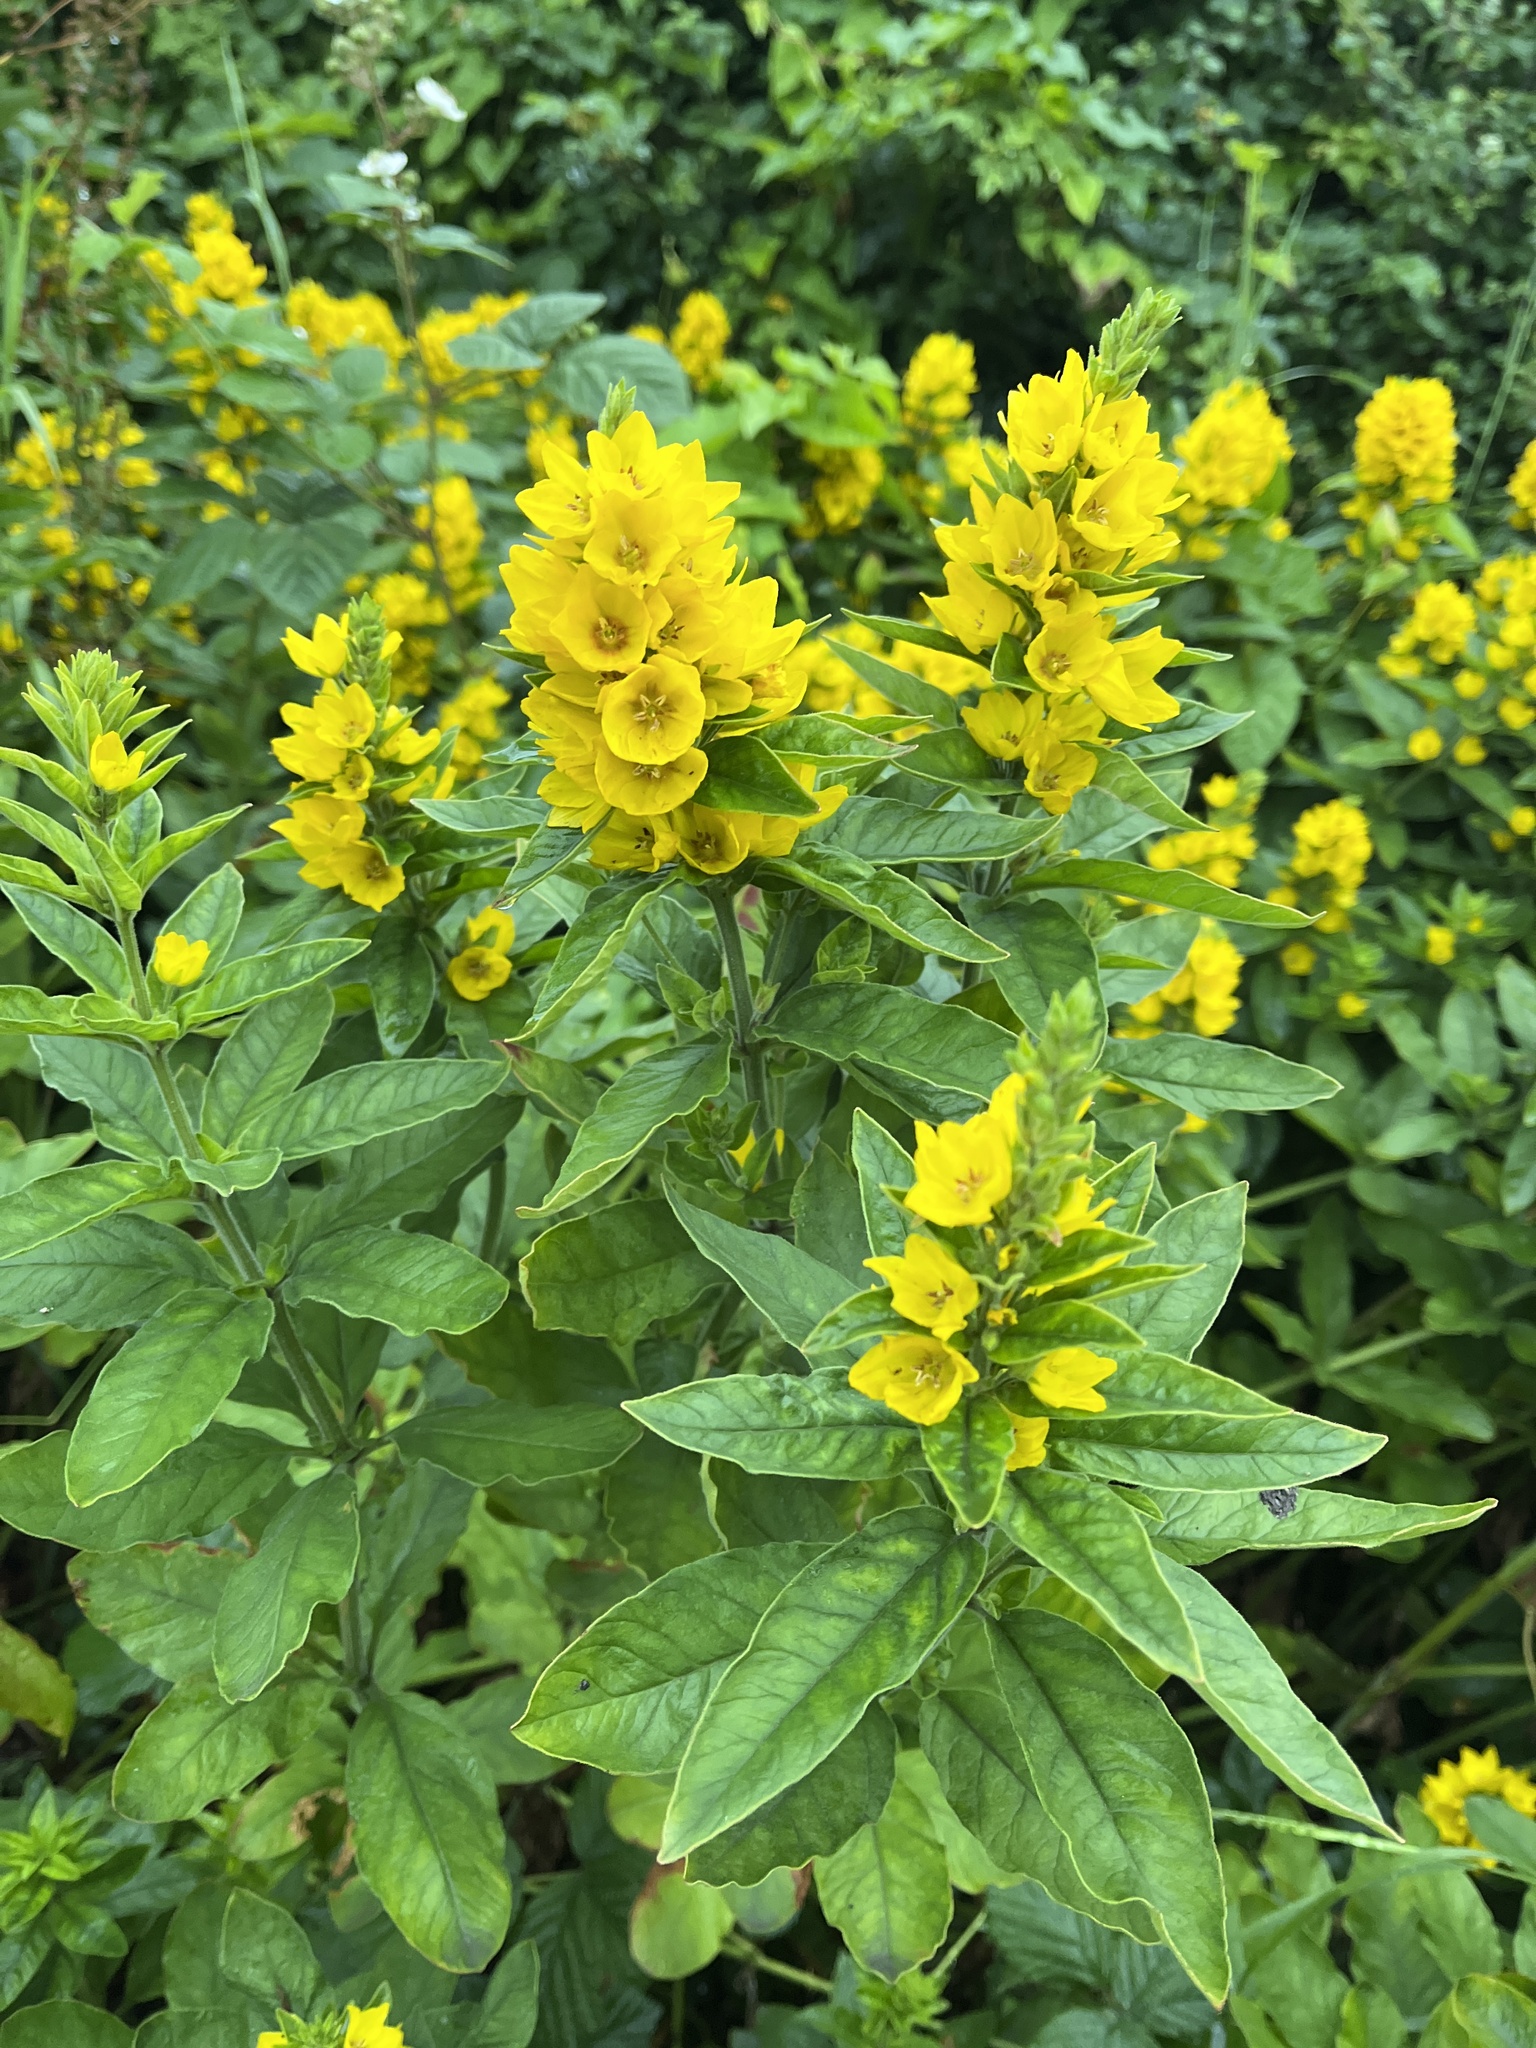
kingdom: Plantae
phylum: Tracheophyta
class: Magnoliopsida
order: Ericales
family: Primulaceae
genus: Lysimachia
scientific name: Lysimachia punctata
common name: Dotted loosestrife
